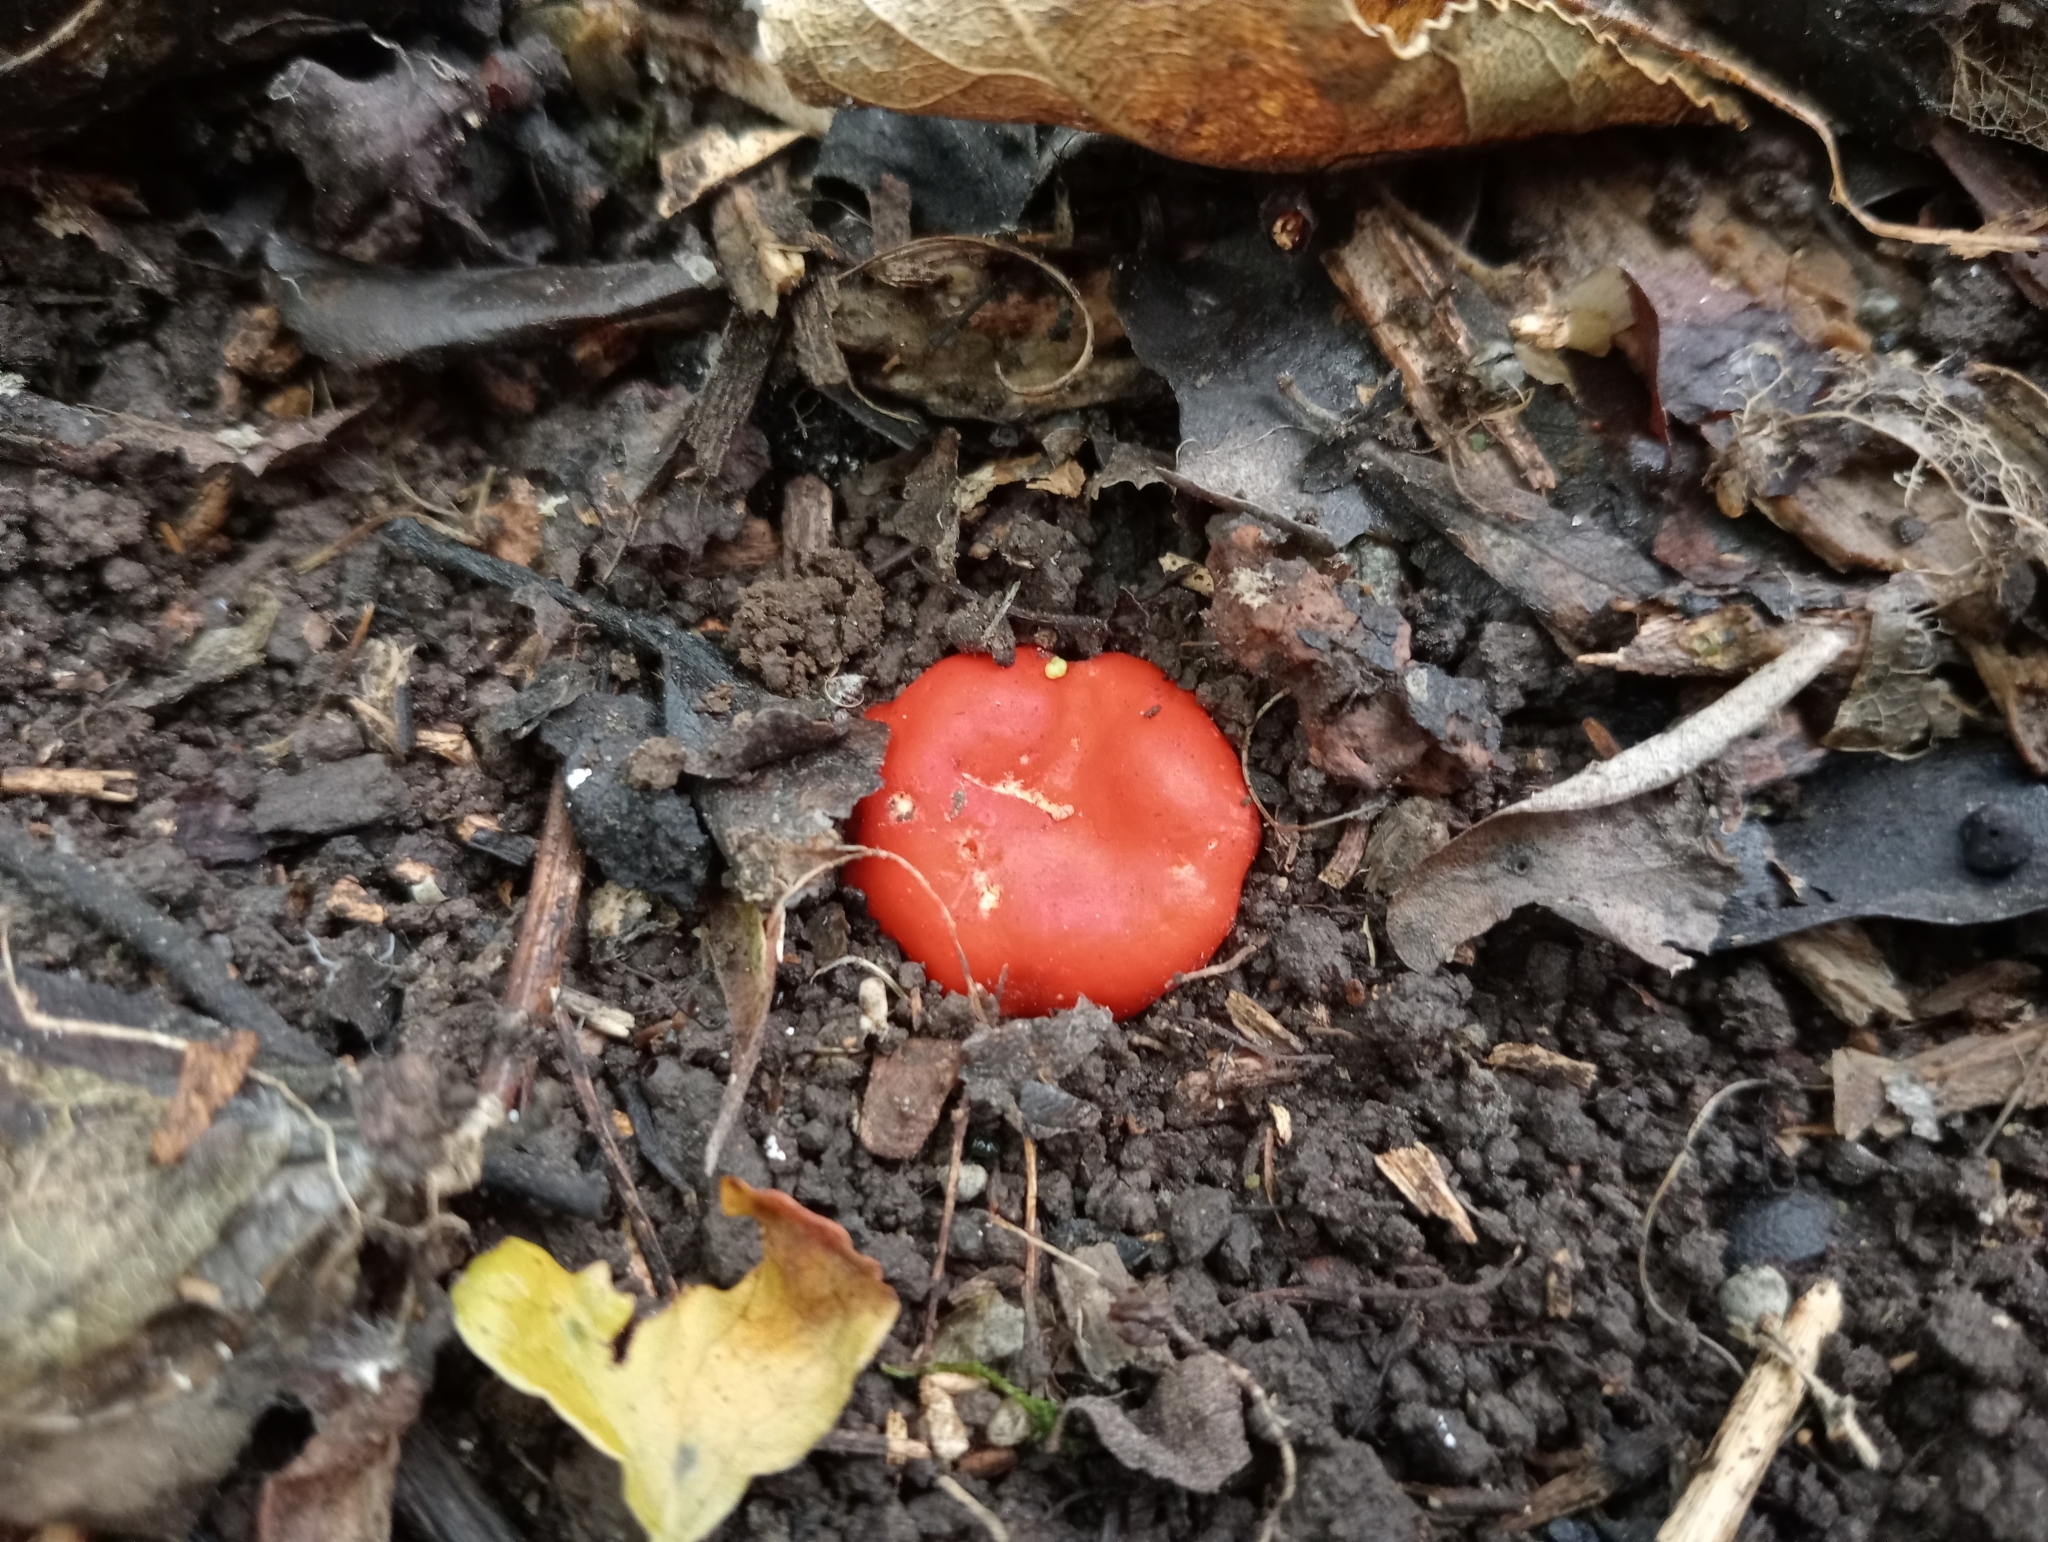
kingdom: Fungi
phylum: Ascomycota
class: Pezizomycetes
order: Pezizales
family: Pyronemataceae
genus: Paurocotylis
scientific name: Paurocotylis pila
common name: Scarlet berry truffle
